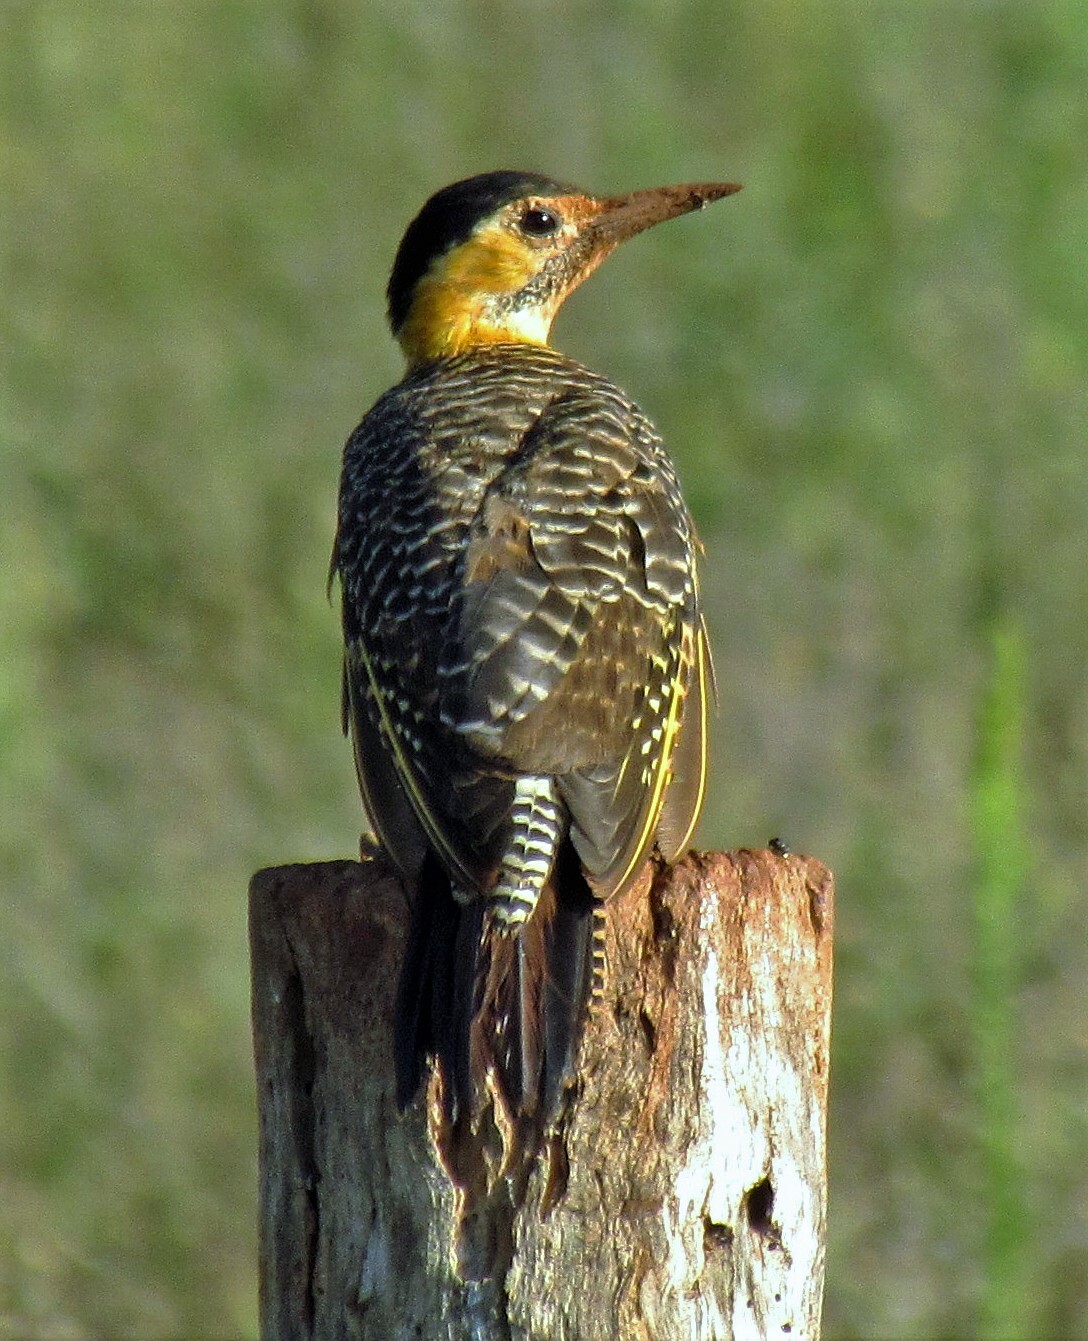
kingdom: Animalia
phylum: Chordata
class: Aves
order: Piciformes
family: Picidae
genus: Colaptes
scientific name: Colaptes campestris
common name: Campo flicker
